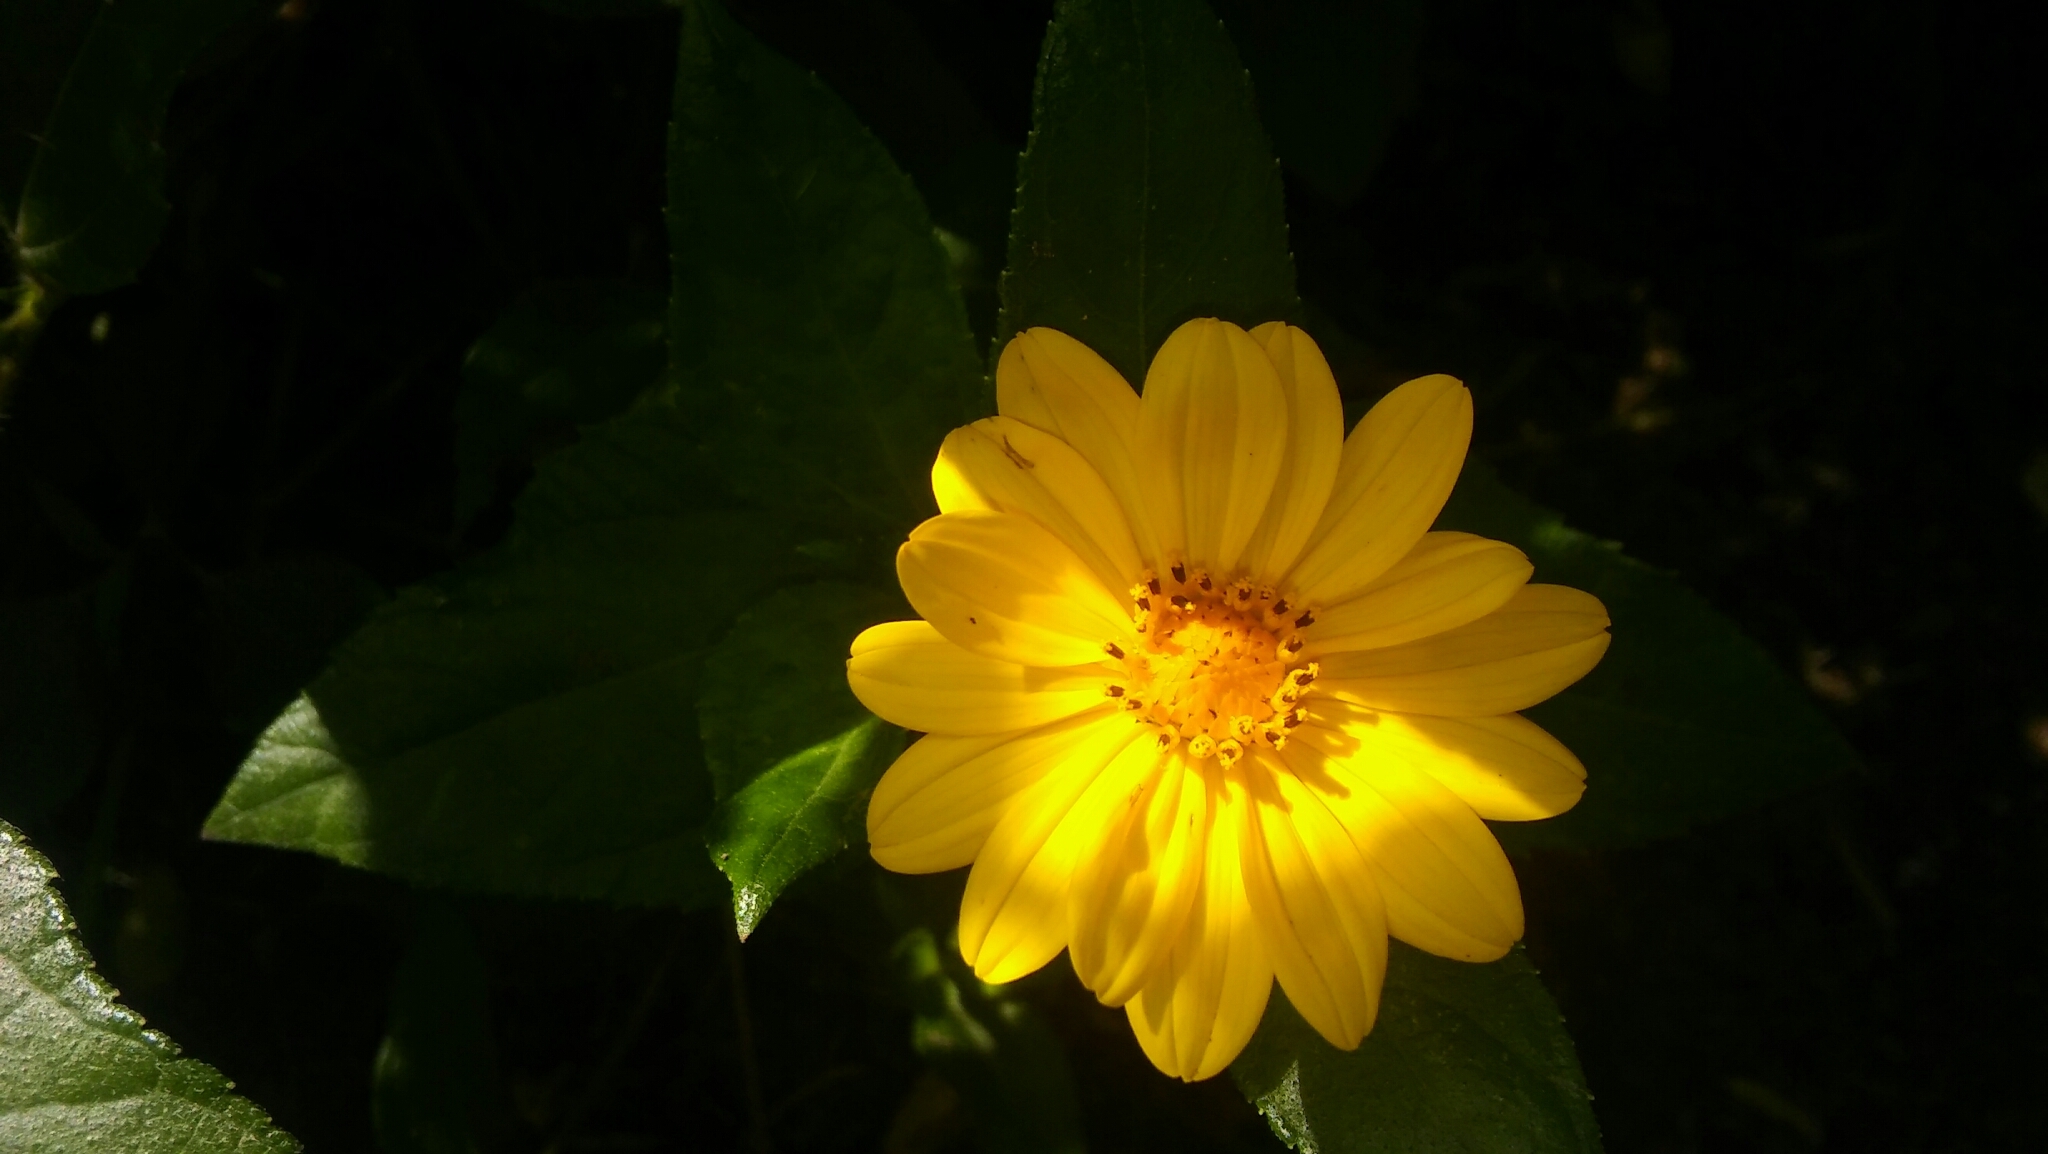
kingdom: Plantae
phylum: Tracheophyta
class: Magnoliopsida
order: Asterales
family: Asteraceae
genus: Wedelia
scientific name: Wedelia silphioides
